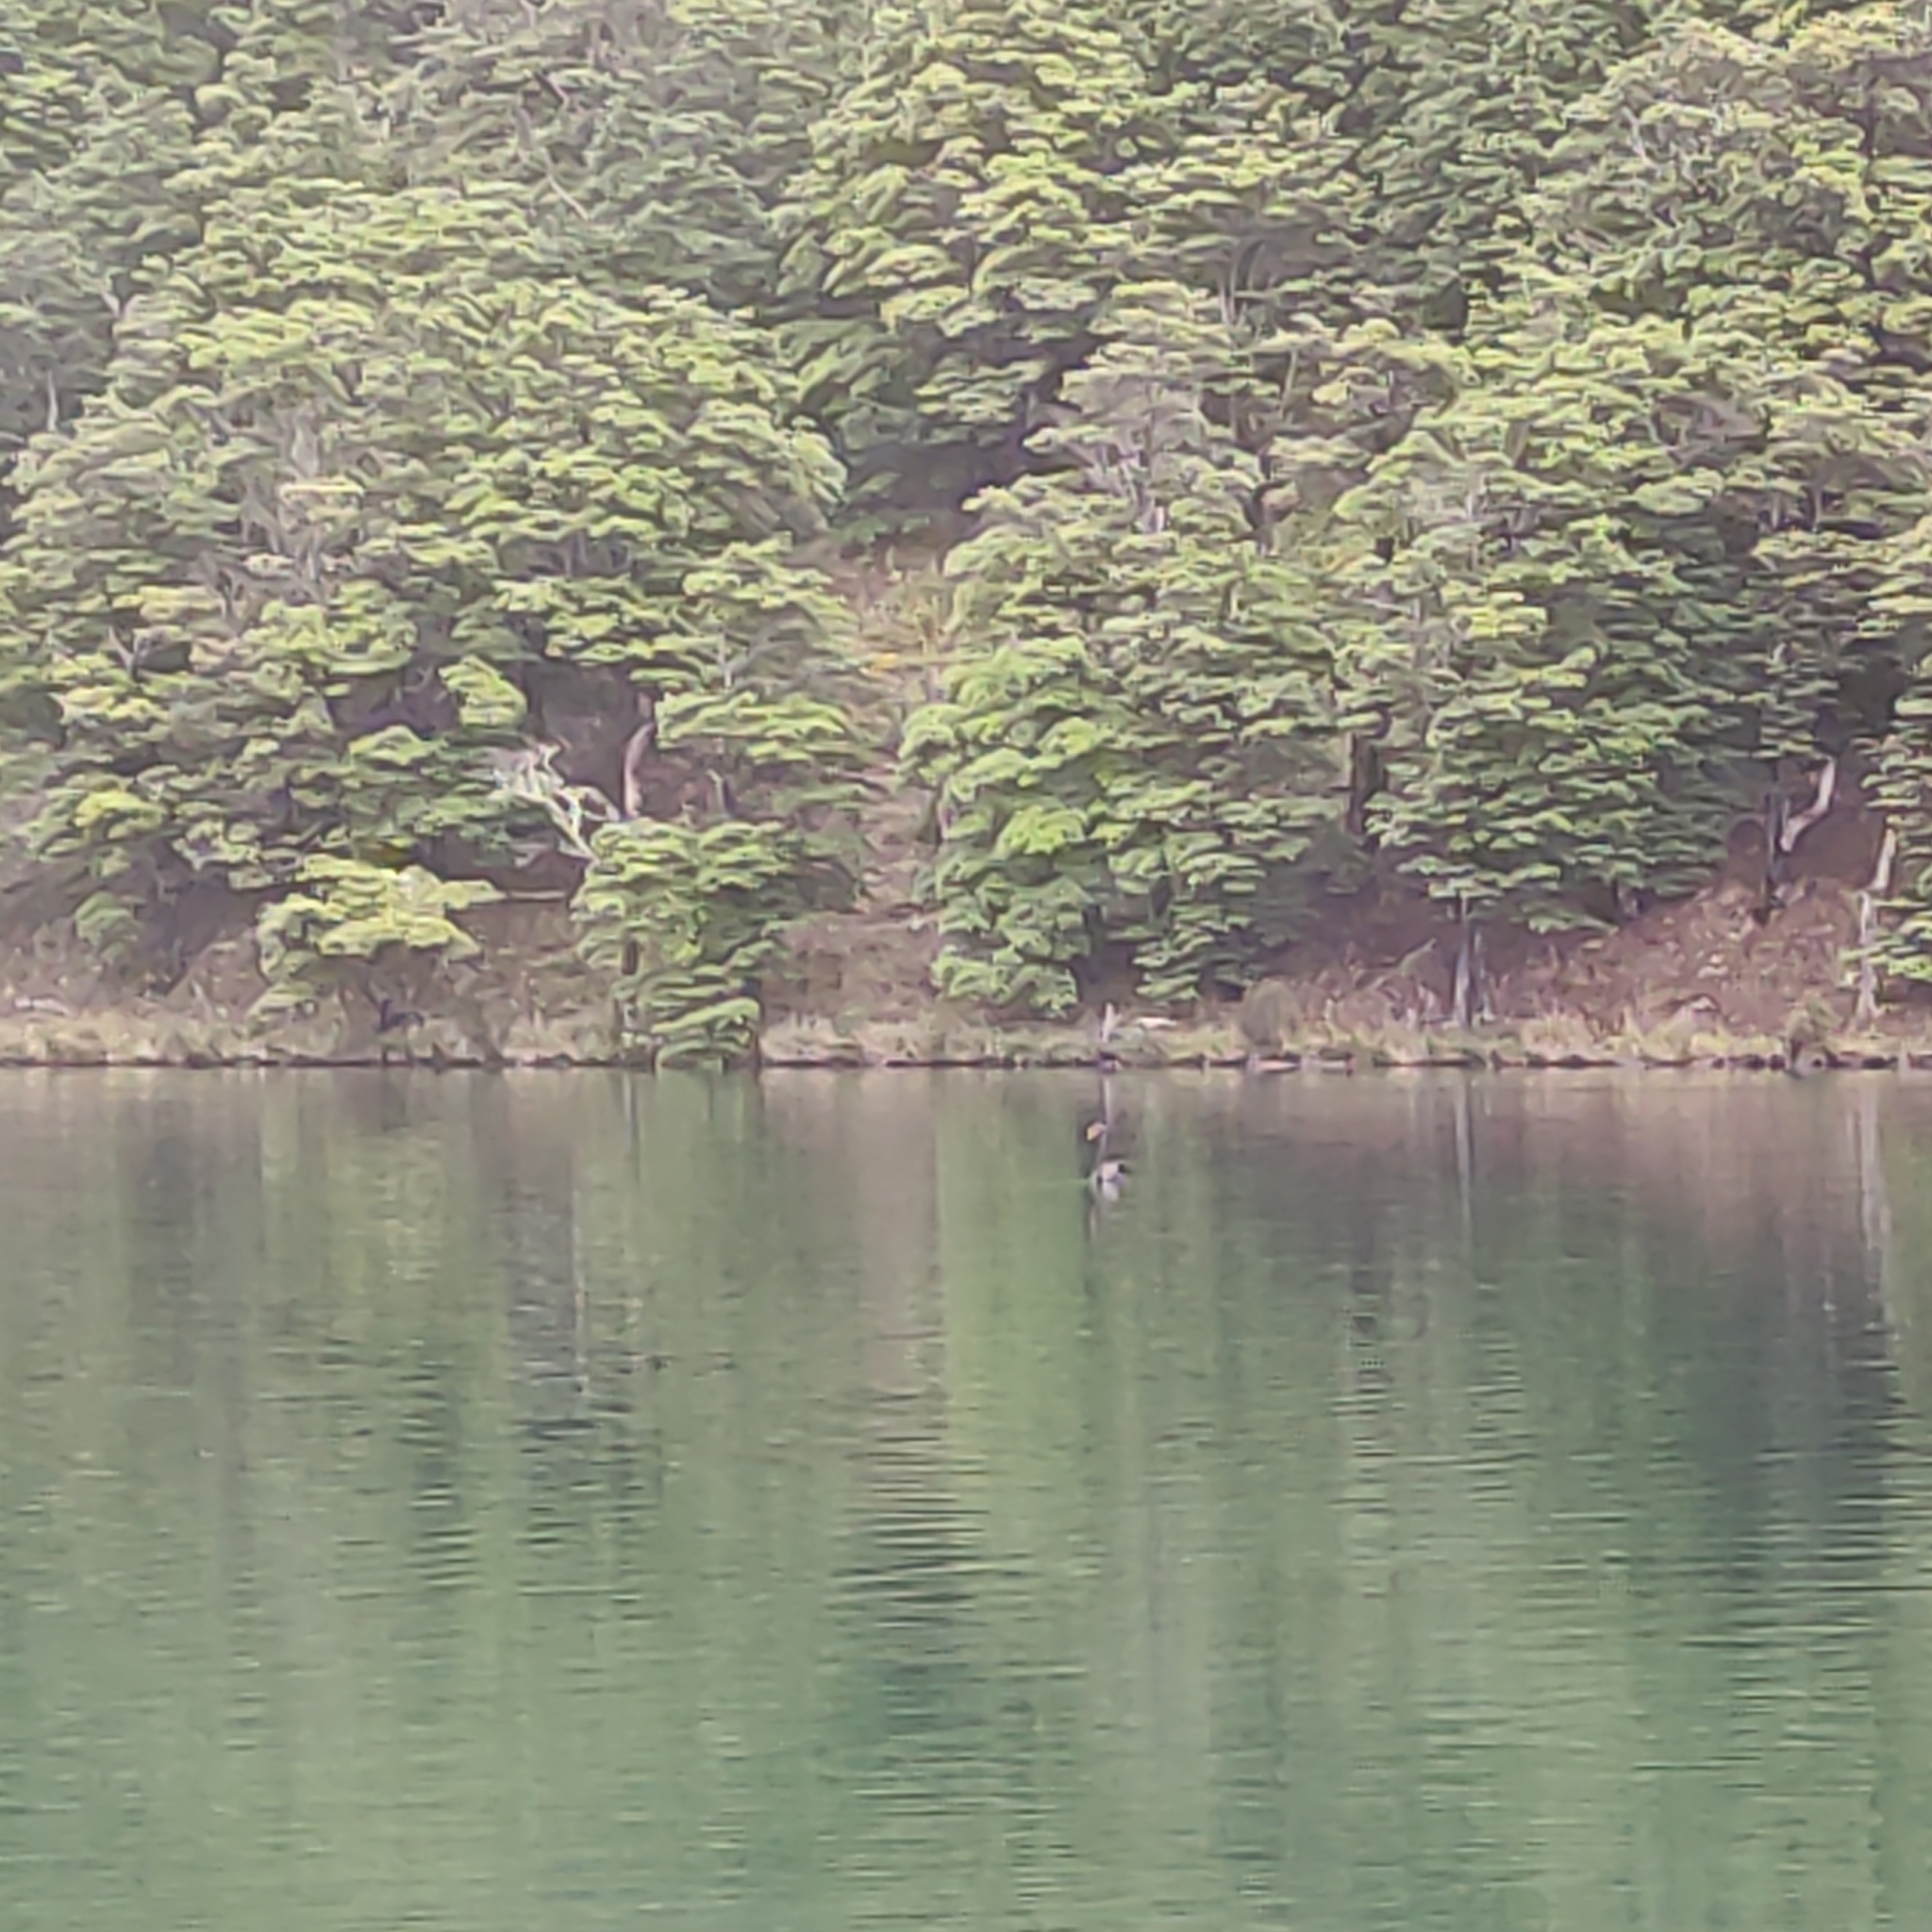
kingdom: Animalia
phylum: Chordata
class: Aves
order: Anseriformes
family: Anatidae
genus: Cygnus
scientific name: Cygnus atratus
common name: Black swan
